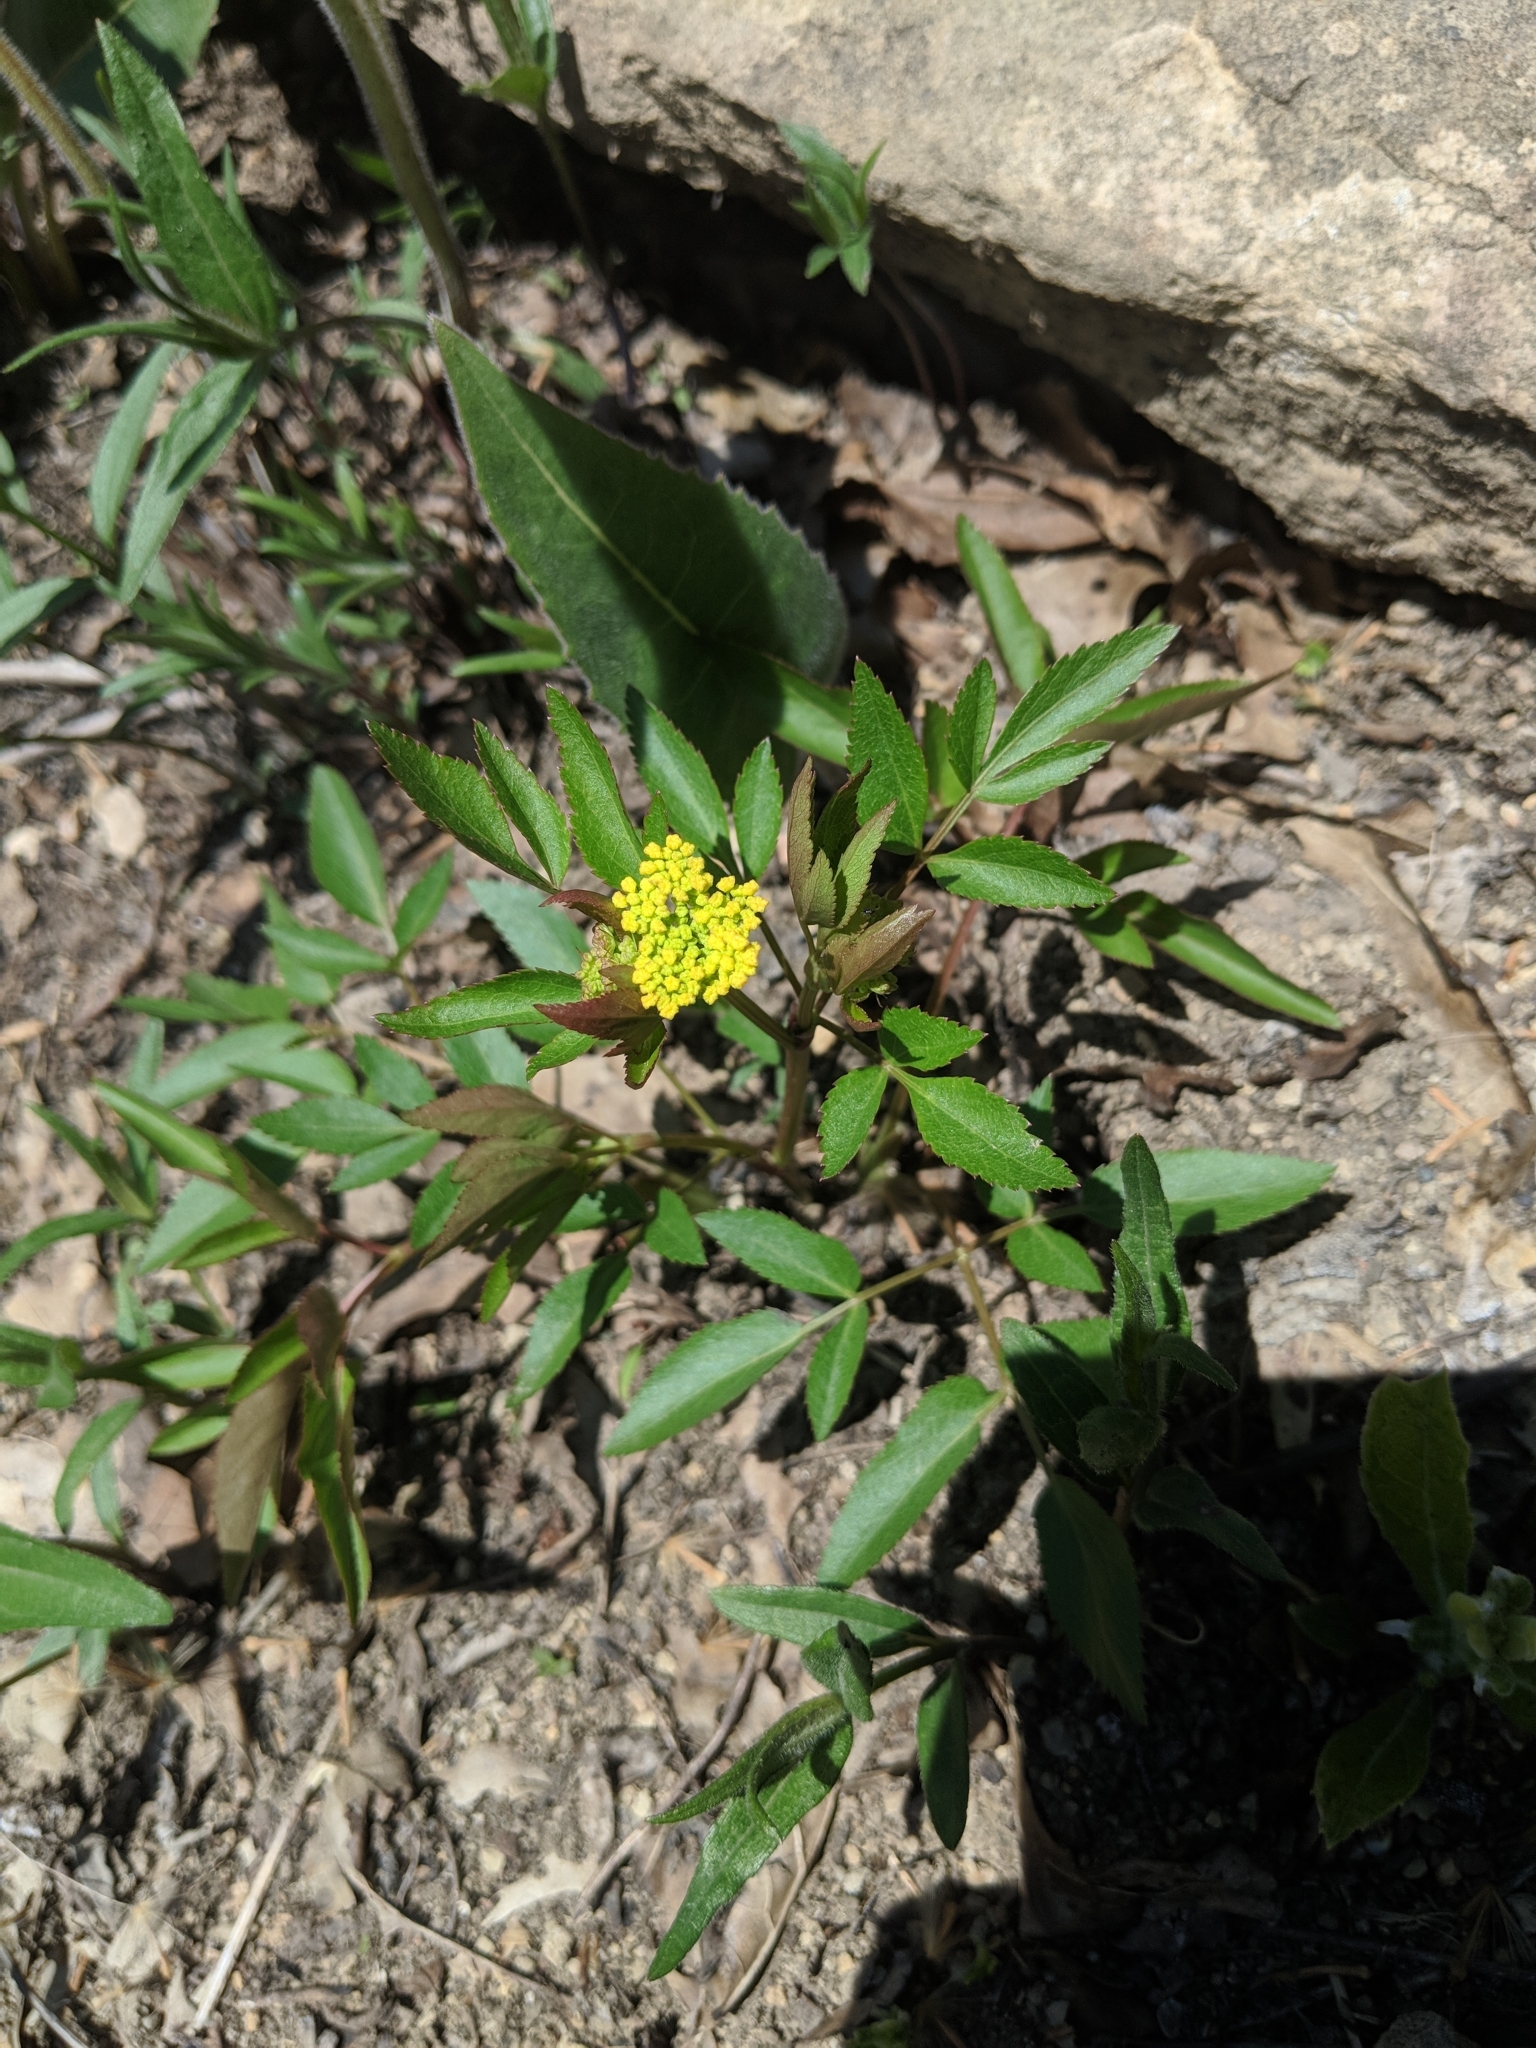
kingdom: Plantae
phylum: Tracheophyta
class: Magnoliopsida
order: Apiales
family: Apiaceae
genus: Zizia
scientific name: Zizia aurea
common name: Golden alexanders
